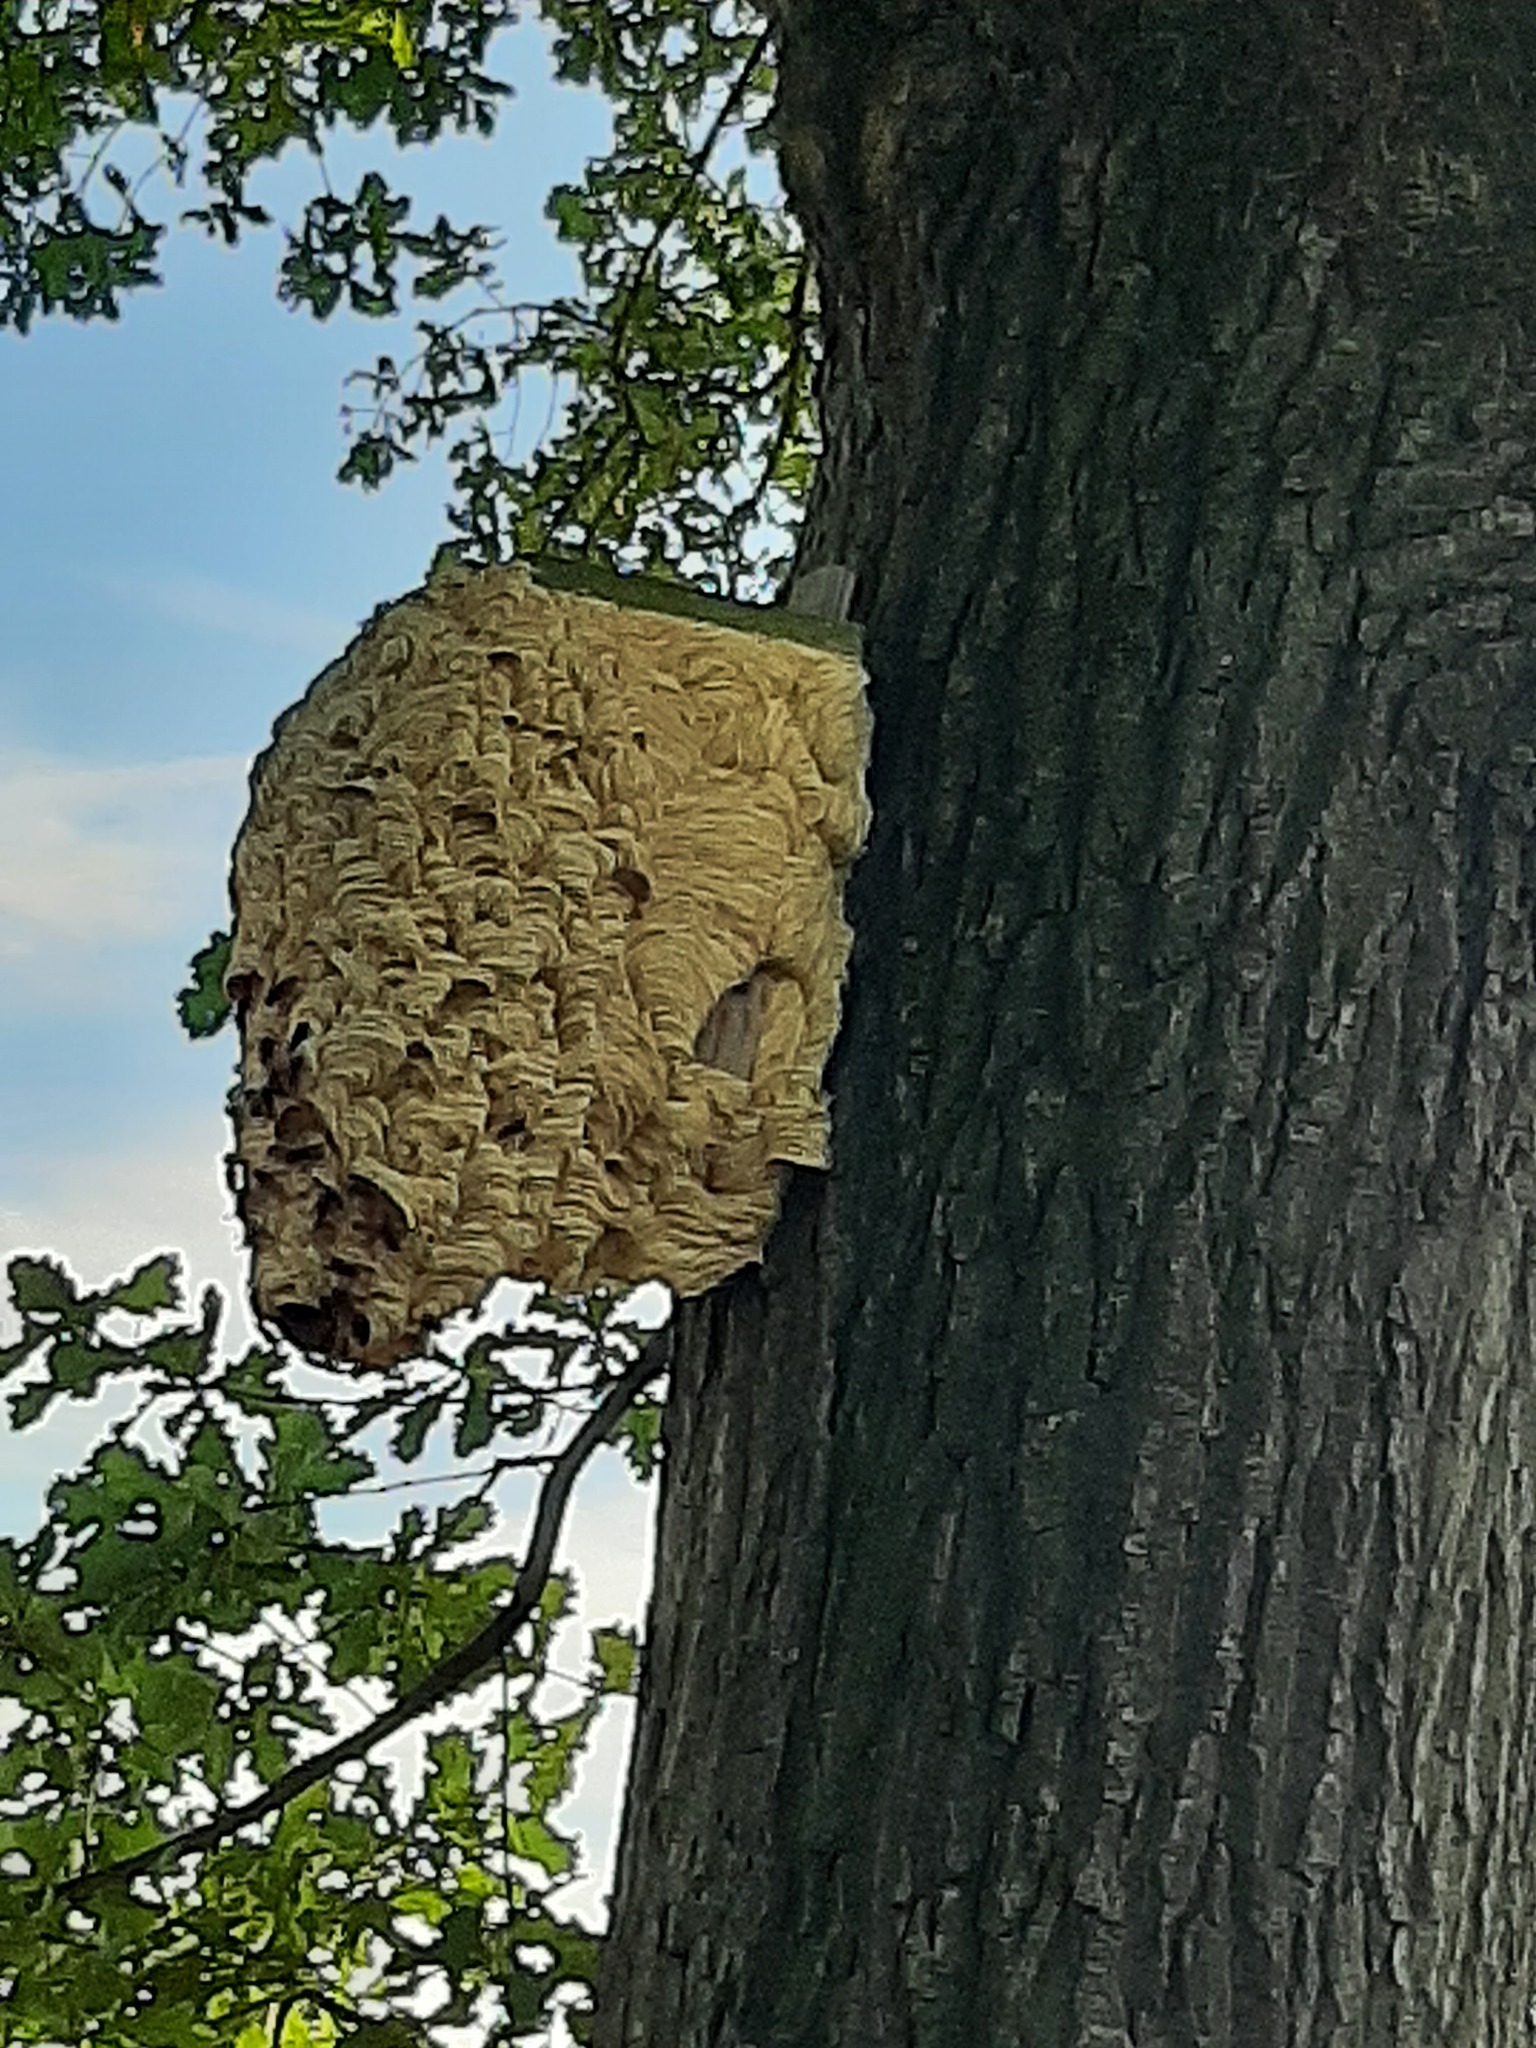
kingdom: Animalia
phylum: Arthropoda
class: Insecta
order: Hymenoptera
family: Vespidae
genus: Vespa
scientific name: Vespa crabro
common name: Hornet
